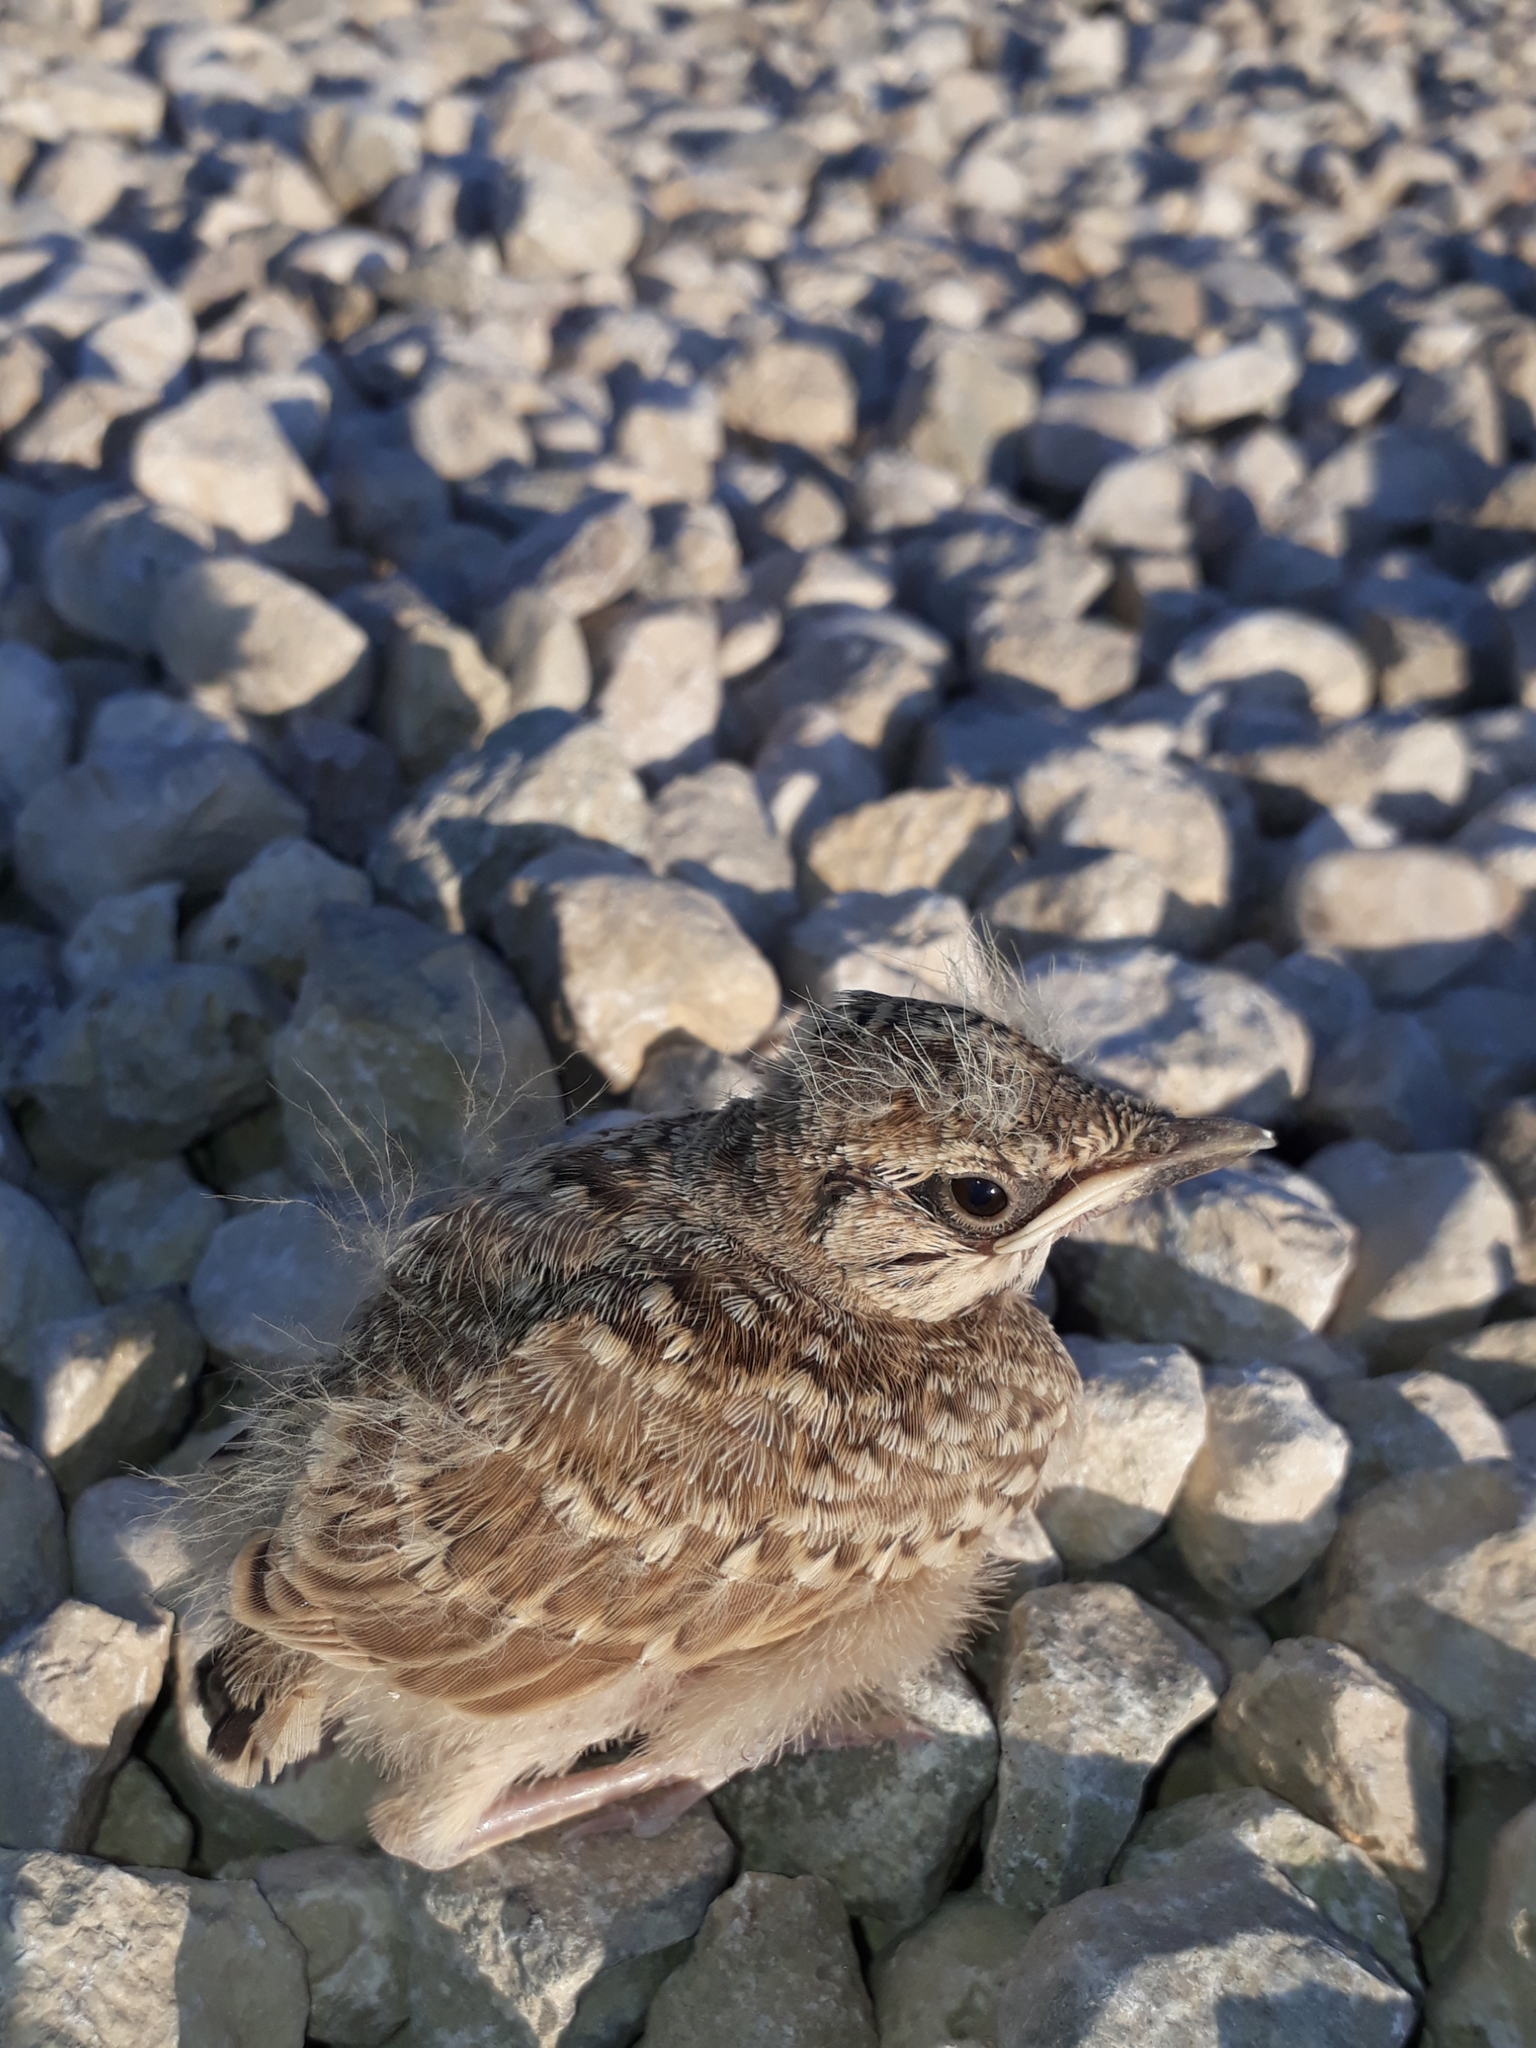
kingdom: Animalia
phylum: Chordata
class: Aves
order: Passeriformes
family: Alaudidae
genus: Galerida
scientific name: Galerida cristata
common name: Crested lark
